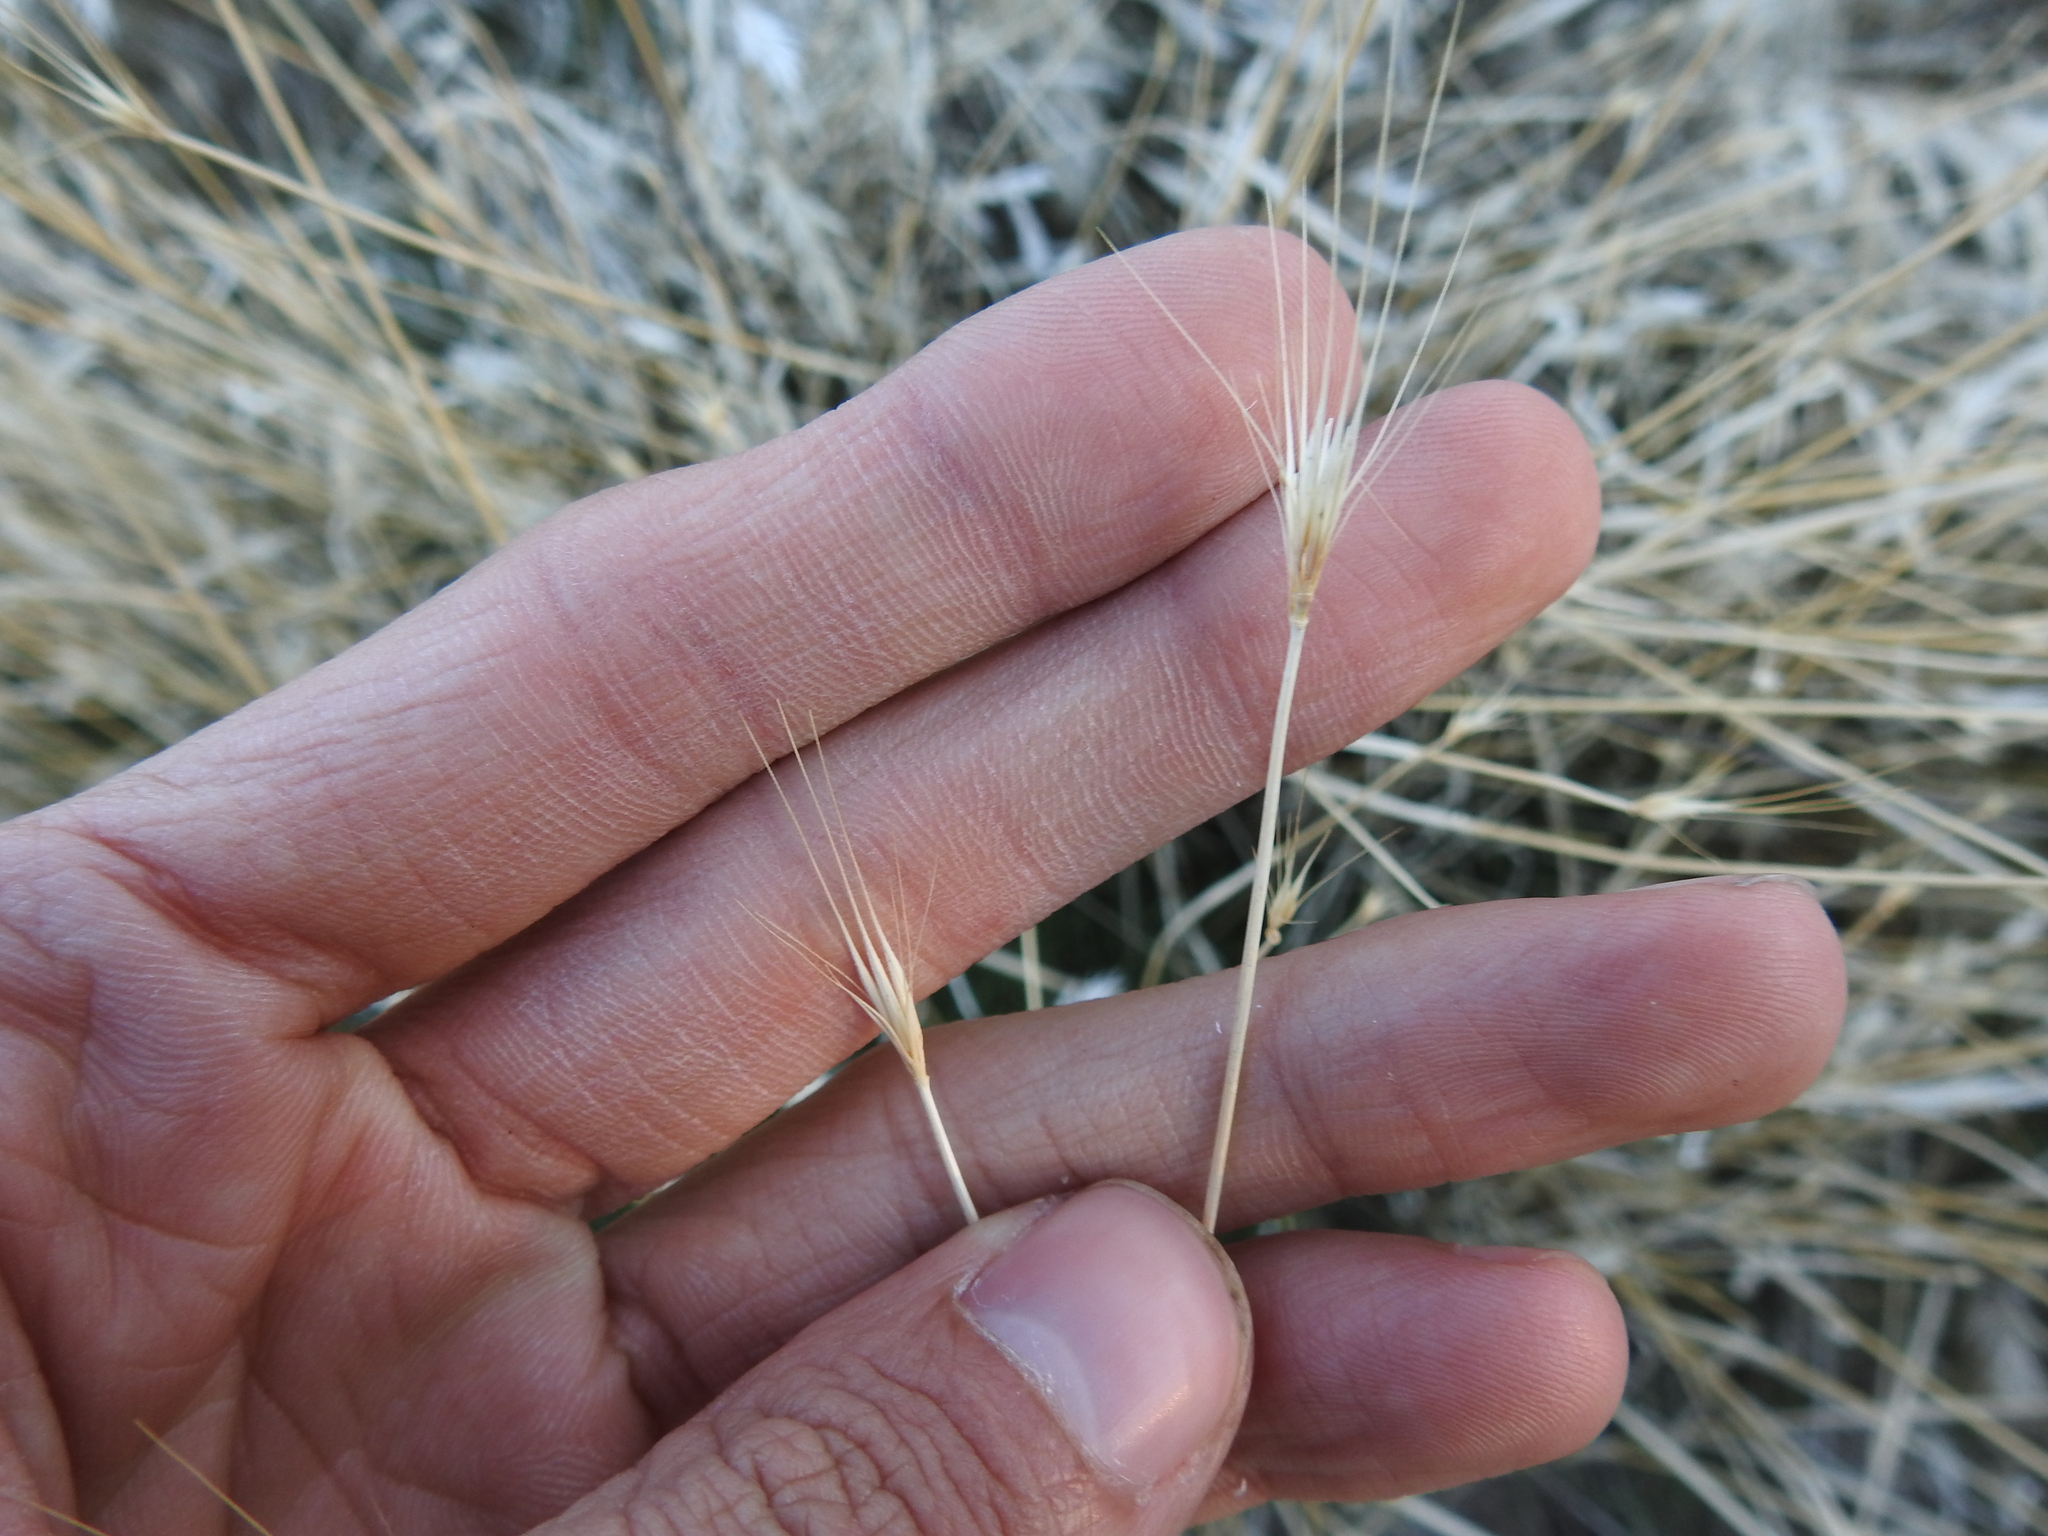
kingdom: Plantae
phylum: Tracheophyta
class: Liliopsida
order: Poales
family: Poaceae
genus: Hordeum
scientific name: Hordeum murinum
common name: Wall barley
